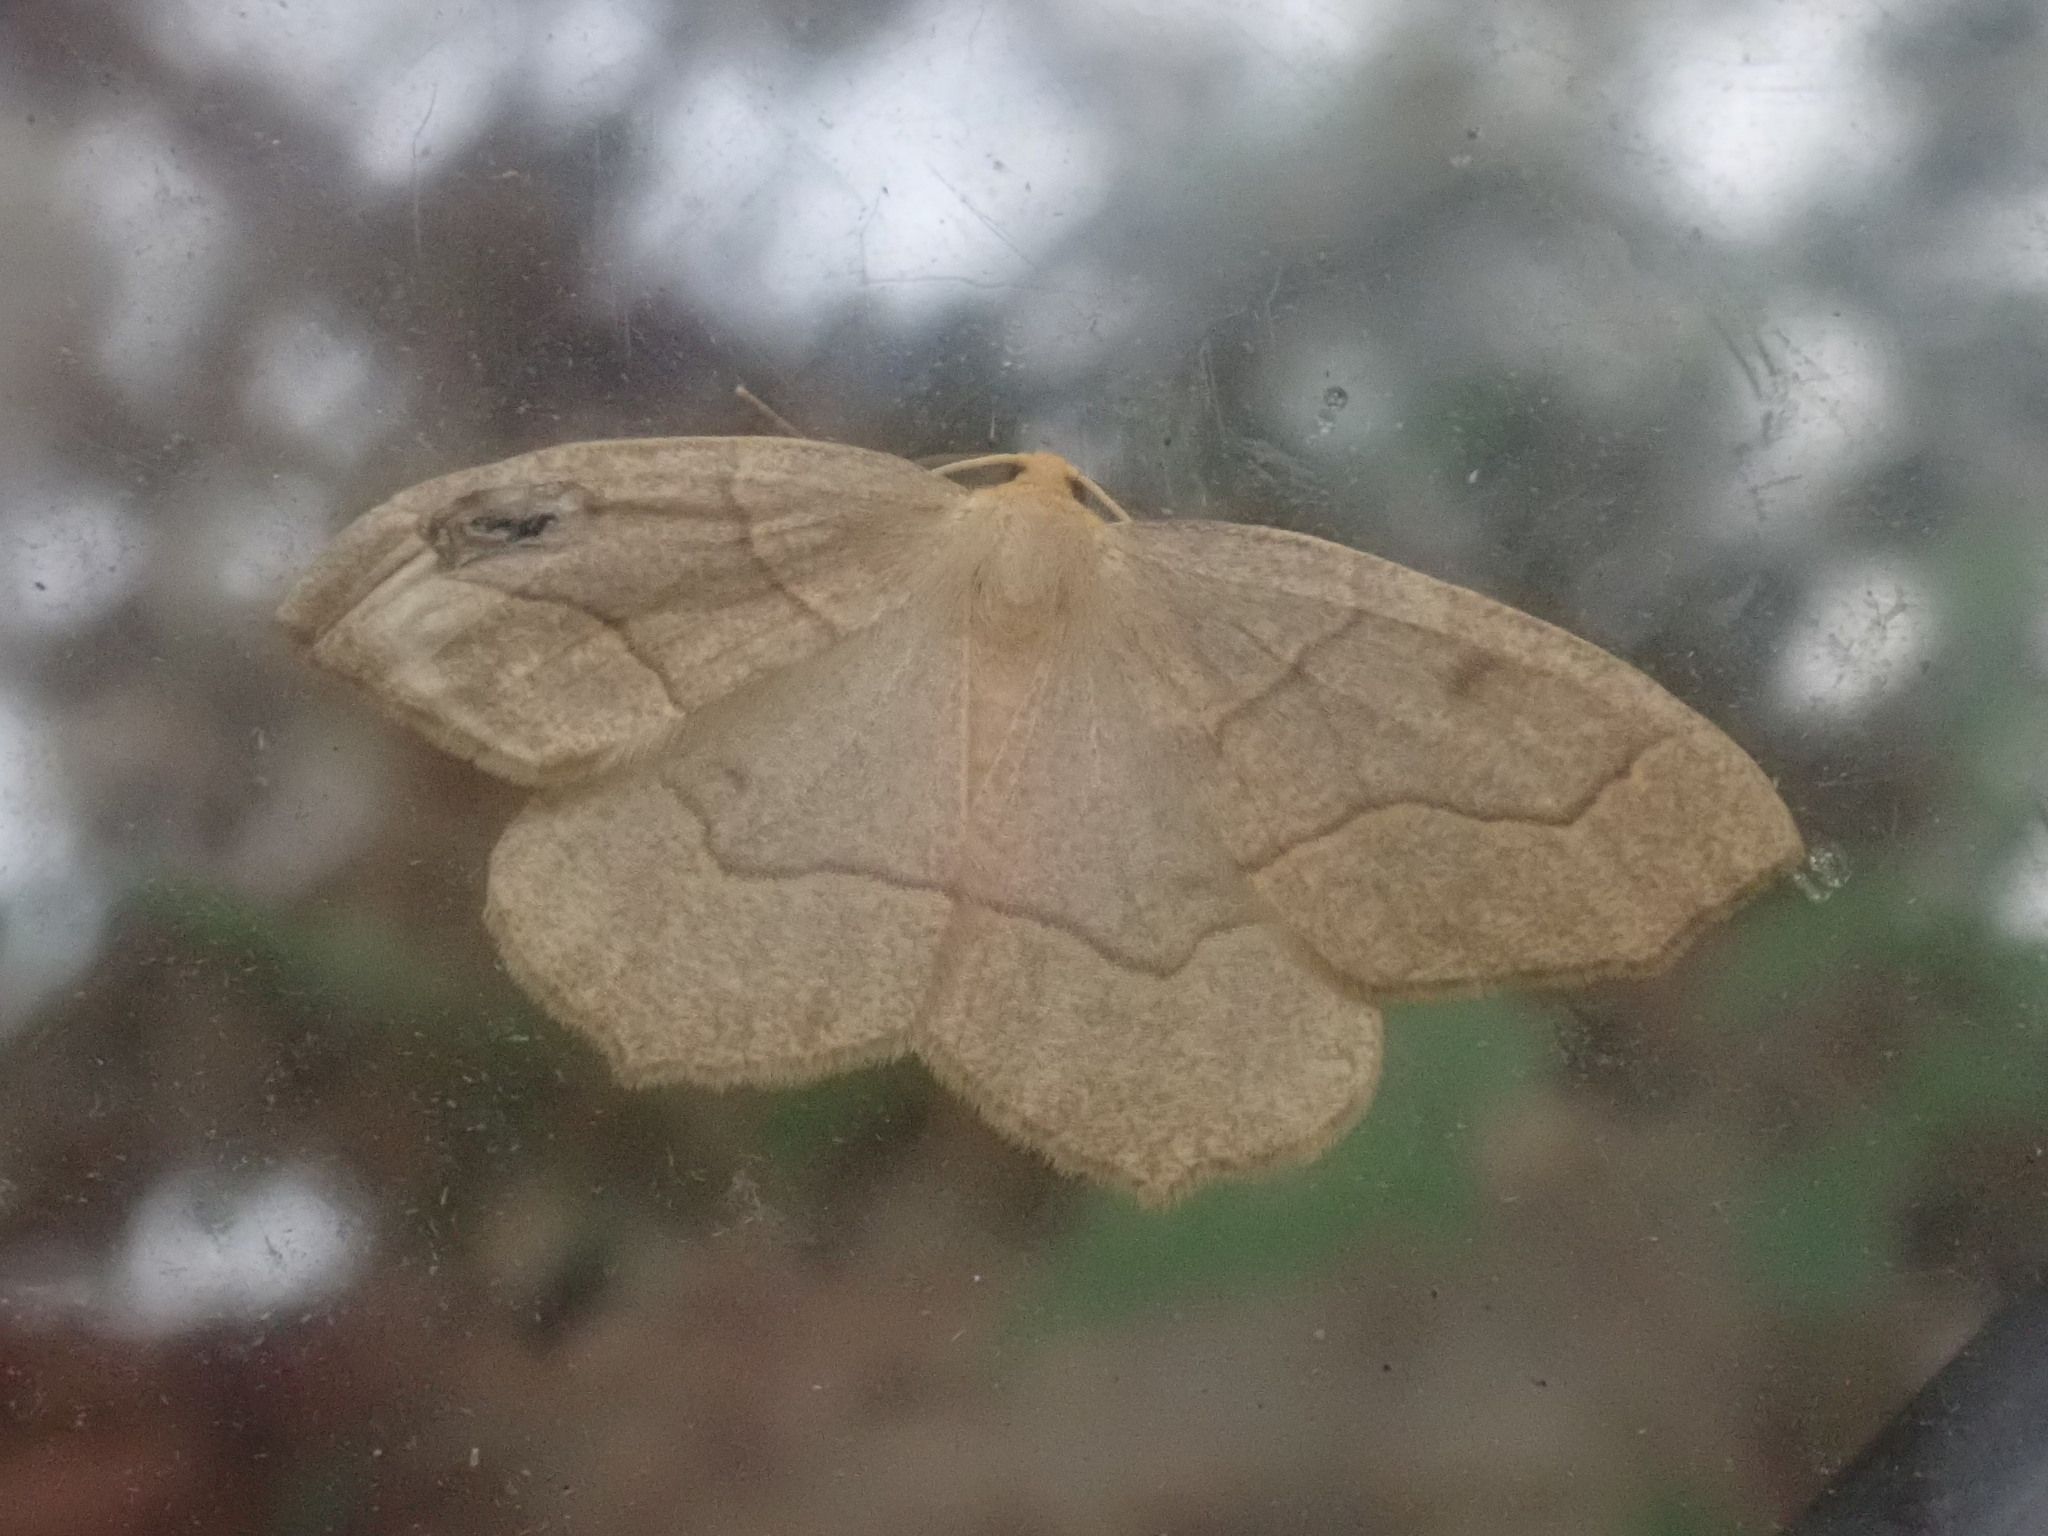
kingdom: Animalia
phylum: Arthropoda
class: Insecta
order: Lepidoptera
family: Geometridae
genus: Lambdina
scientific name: Lambdina fiscellaria
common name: Hemlock looper
